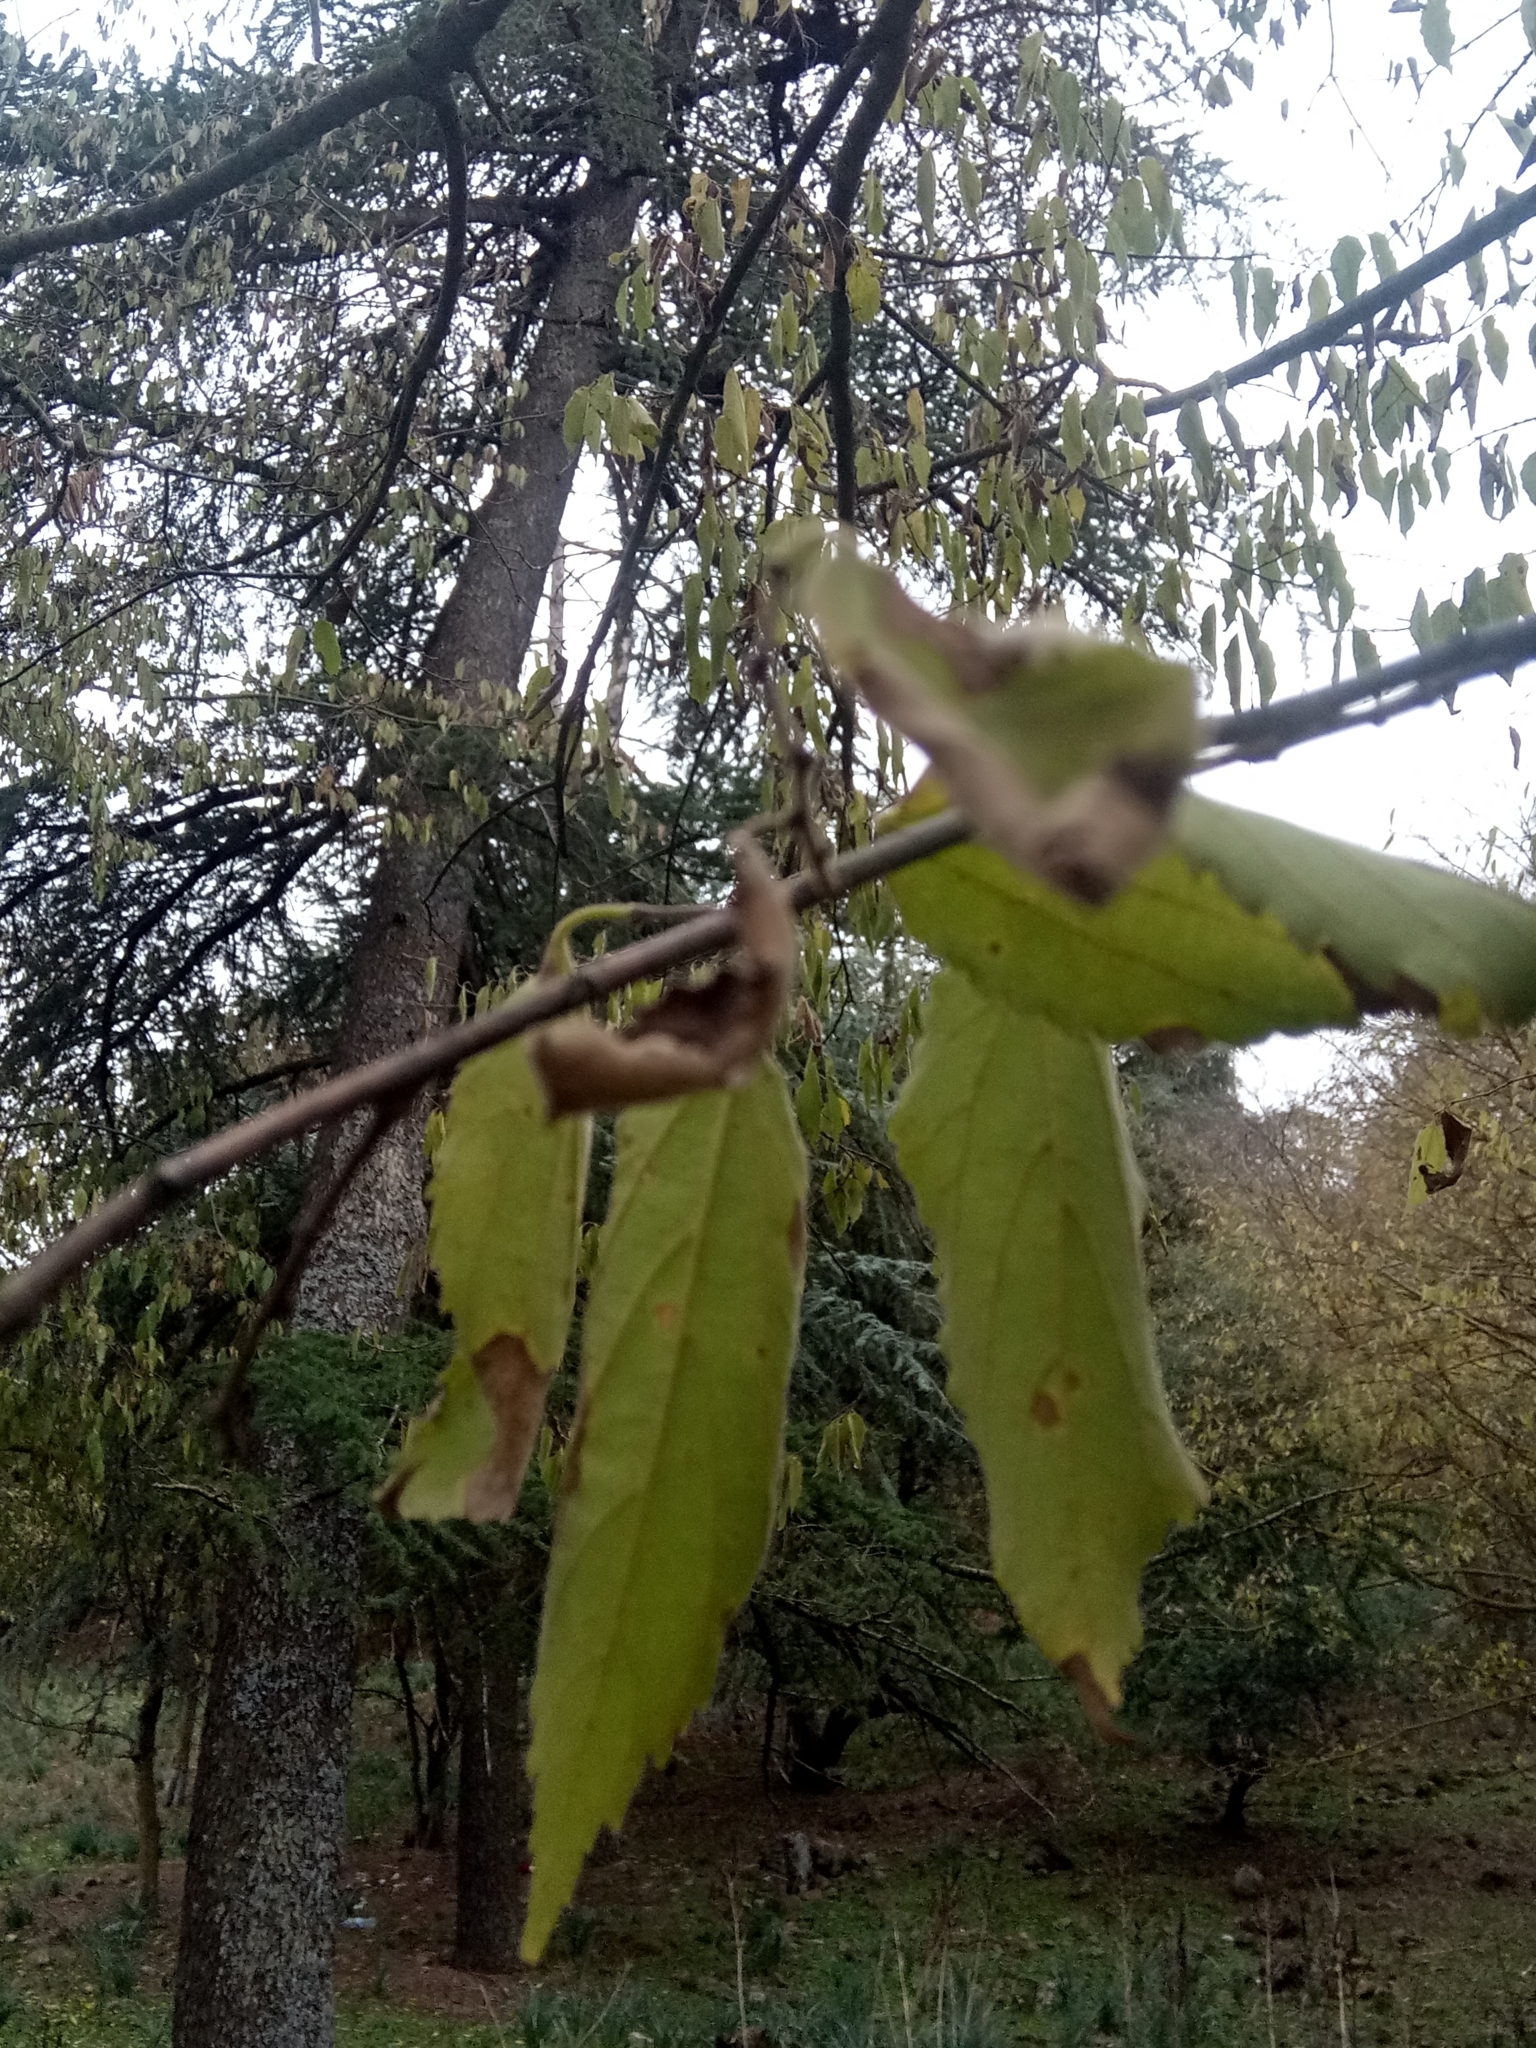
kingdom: Plantae
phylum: Tracheophyta
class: Magnoliopsida
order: Rosales
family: Cannabaceae
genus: Celtis
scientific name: Celtis australis
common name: European hackberry
